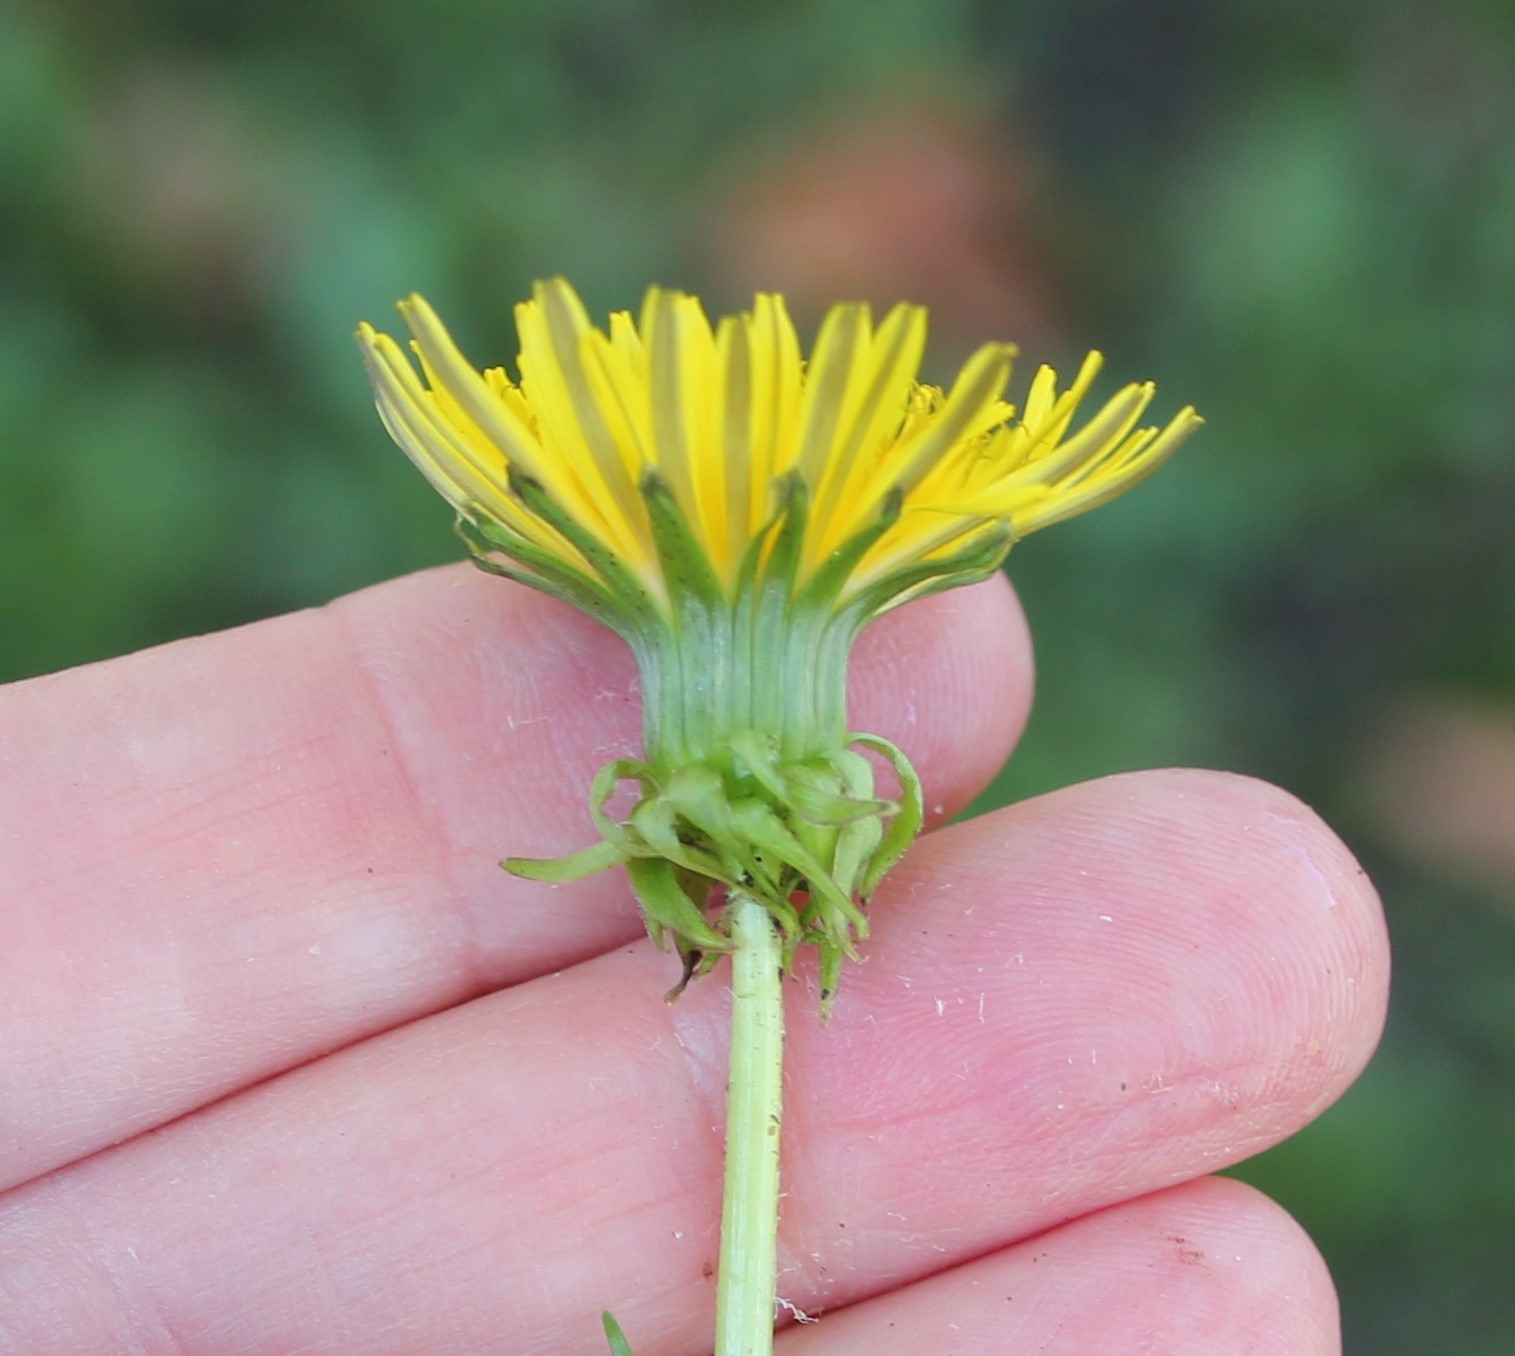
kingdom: Plantae
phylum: Tracheophyta
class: Magnoliopsida
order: Asterales
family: Asteraceae
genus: Taraxacum
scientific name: Taraxacum officinale
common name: Common dandelion
